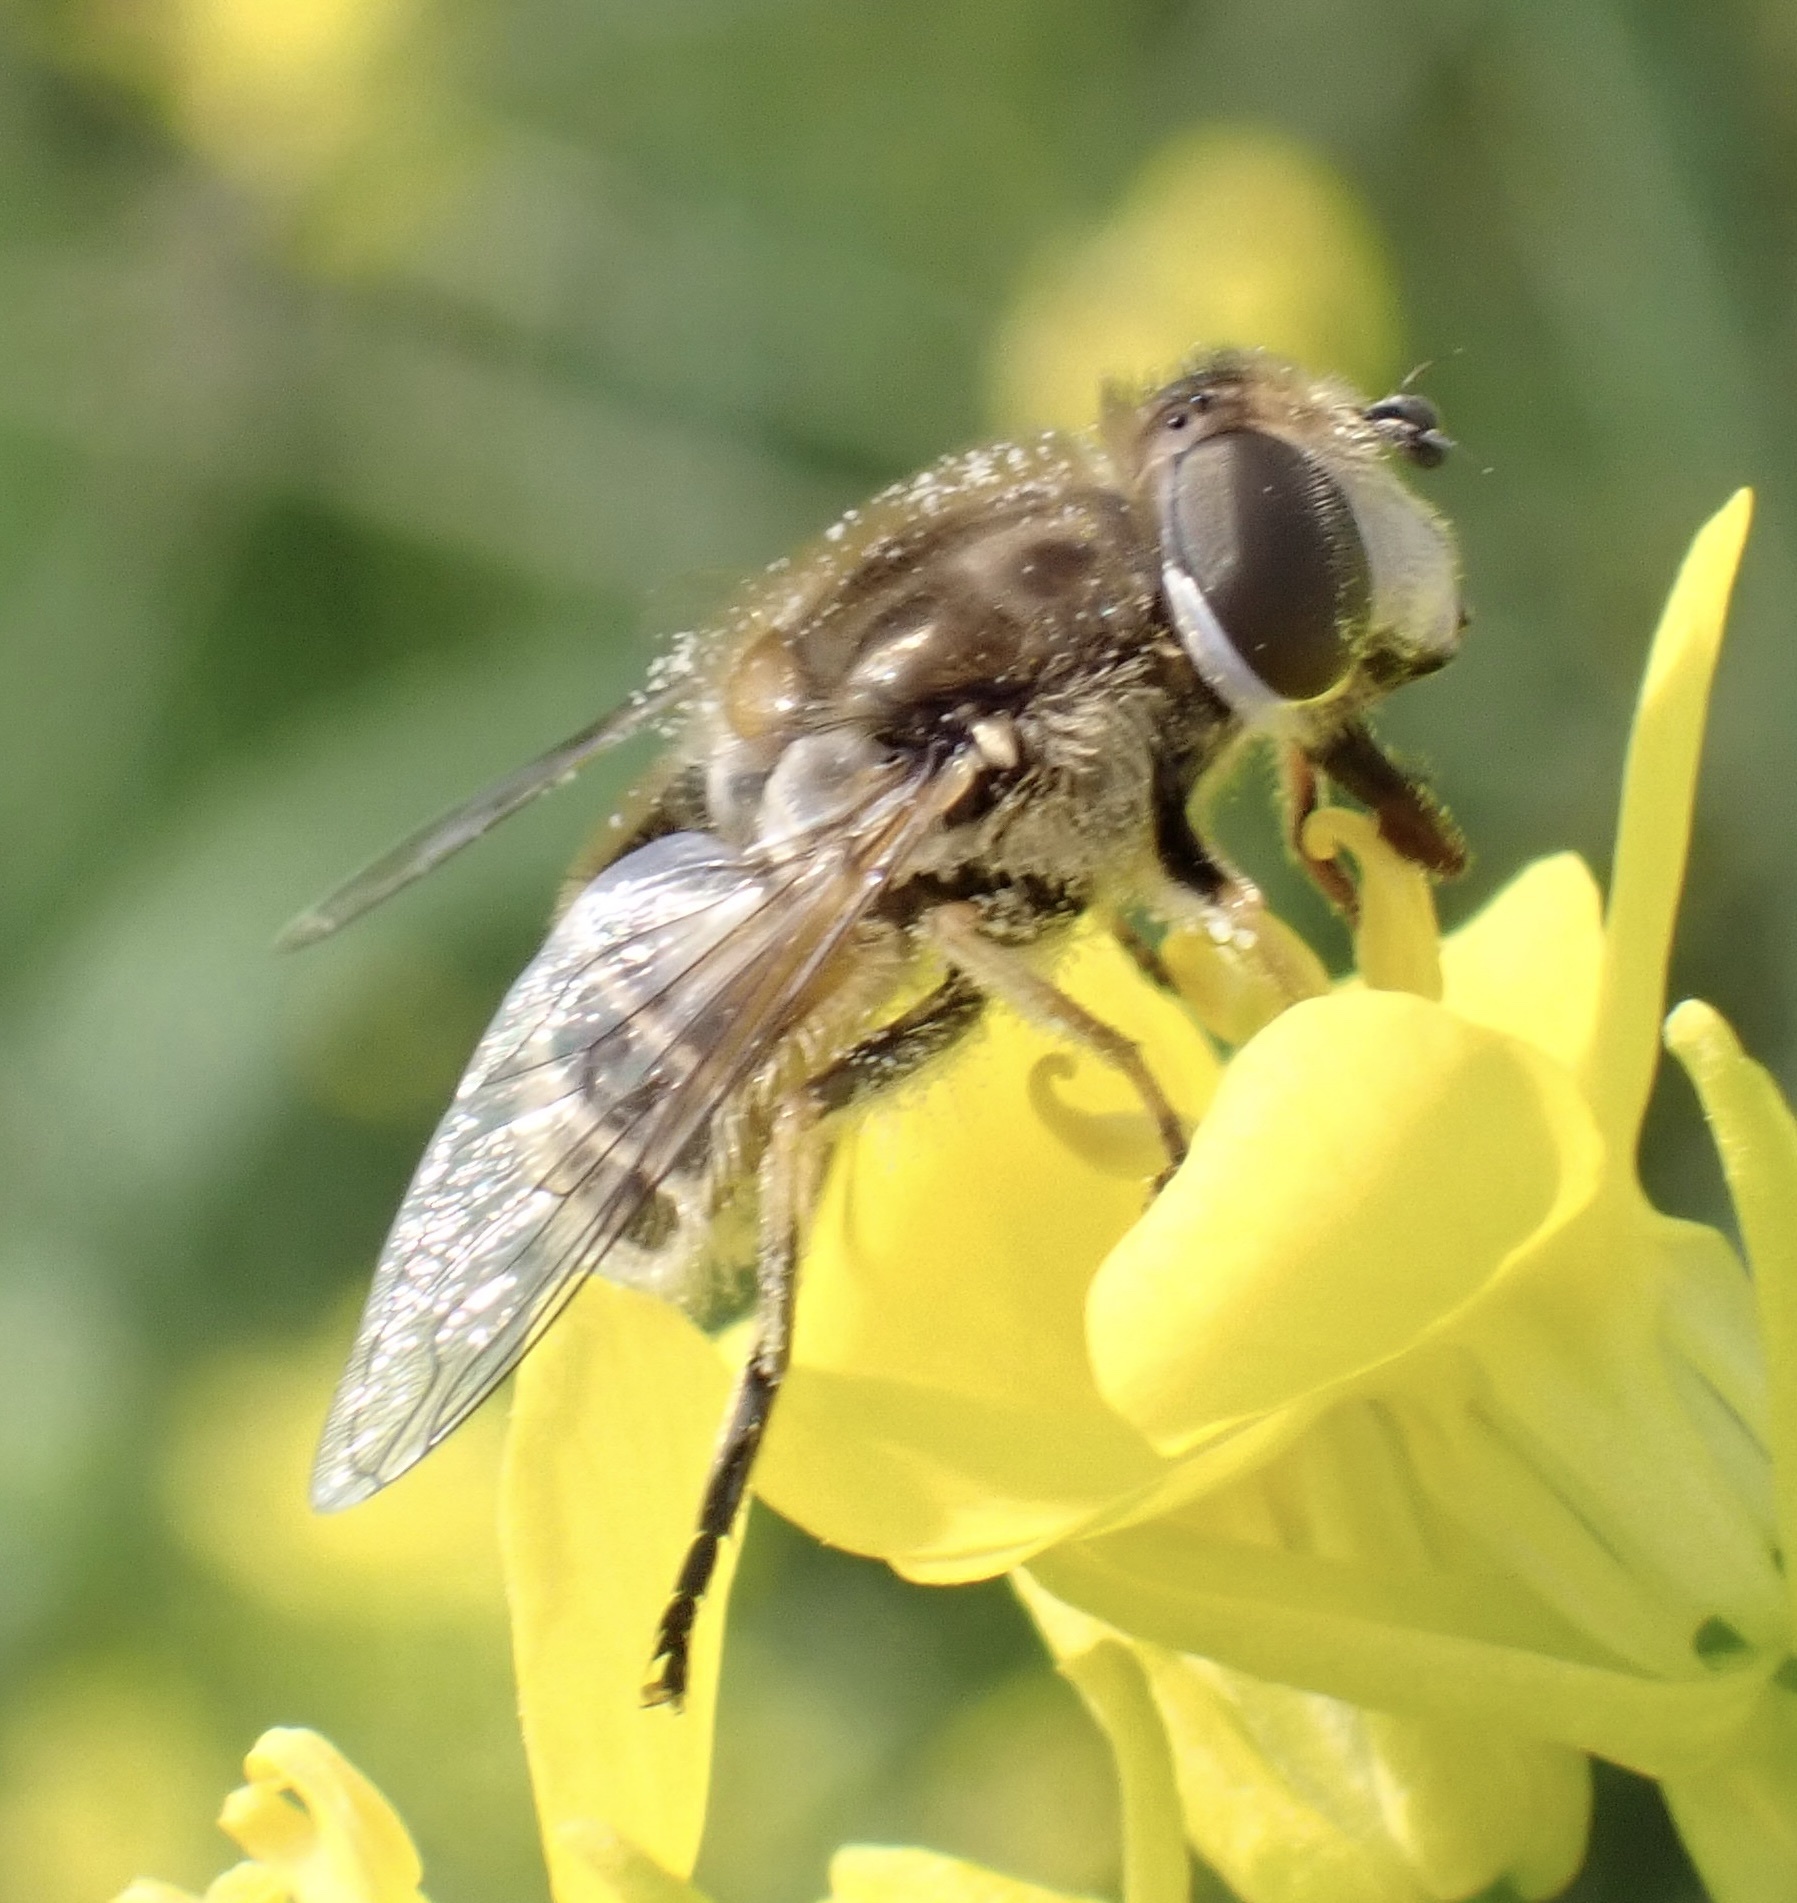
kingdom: Animalia
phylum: Arthropoda
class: Insecta
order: Diptera
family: Syrphidae
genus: Eristalis
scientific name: Eristalis arbustorum
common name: Hover fly
